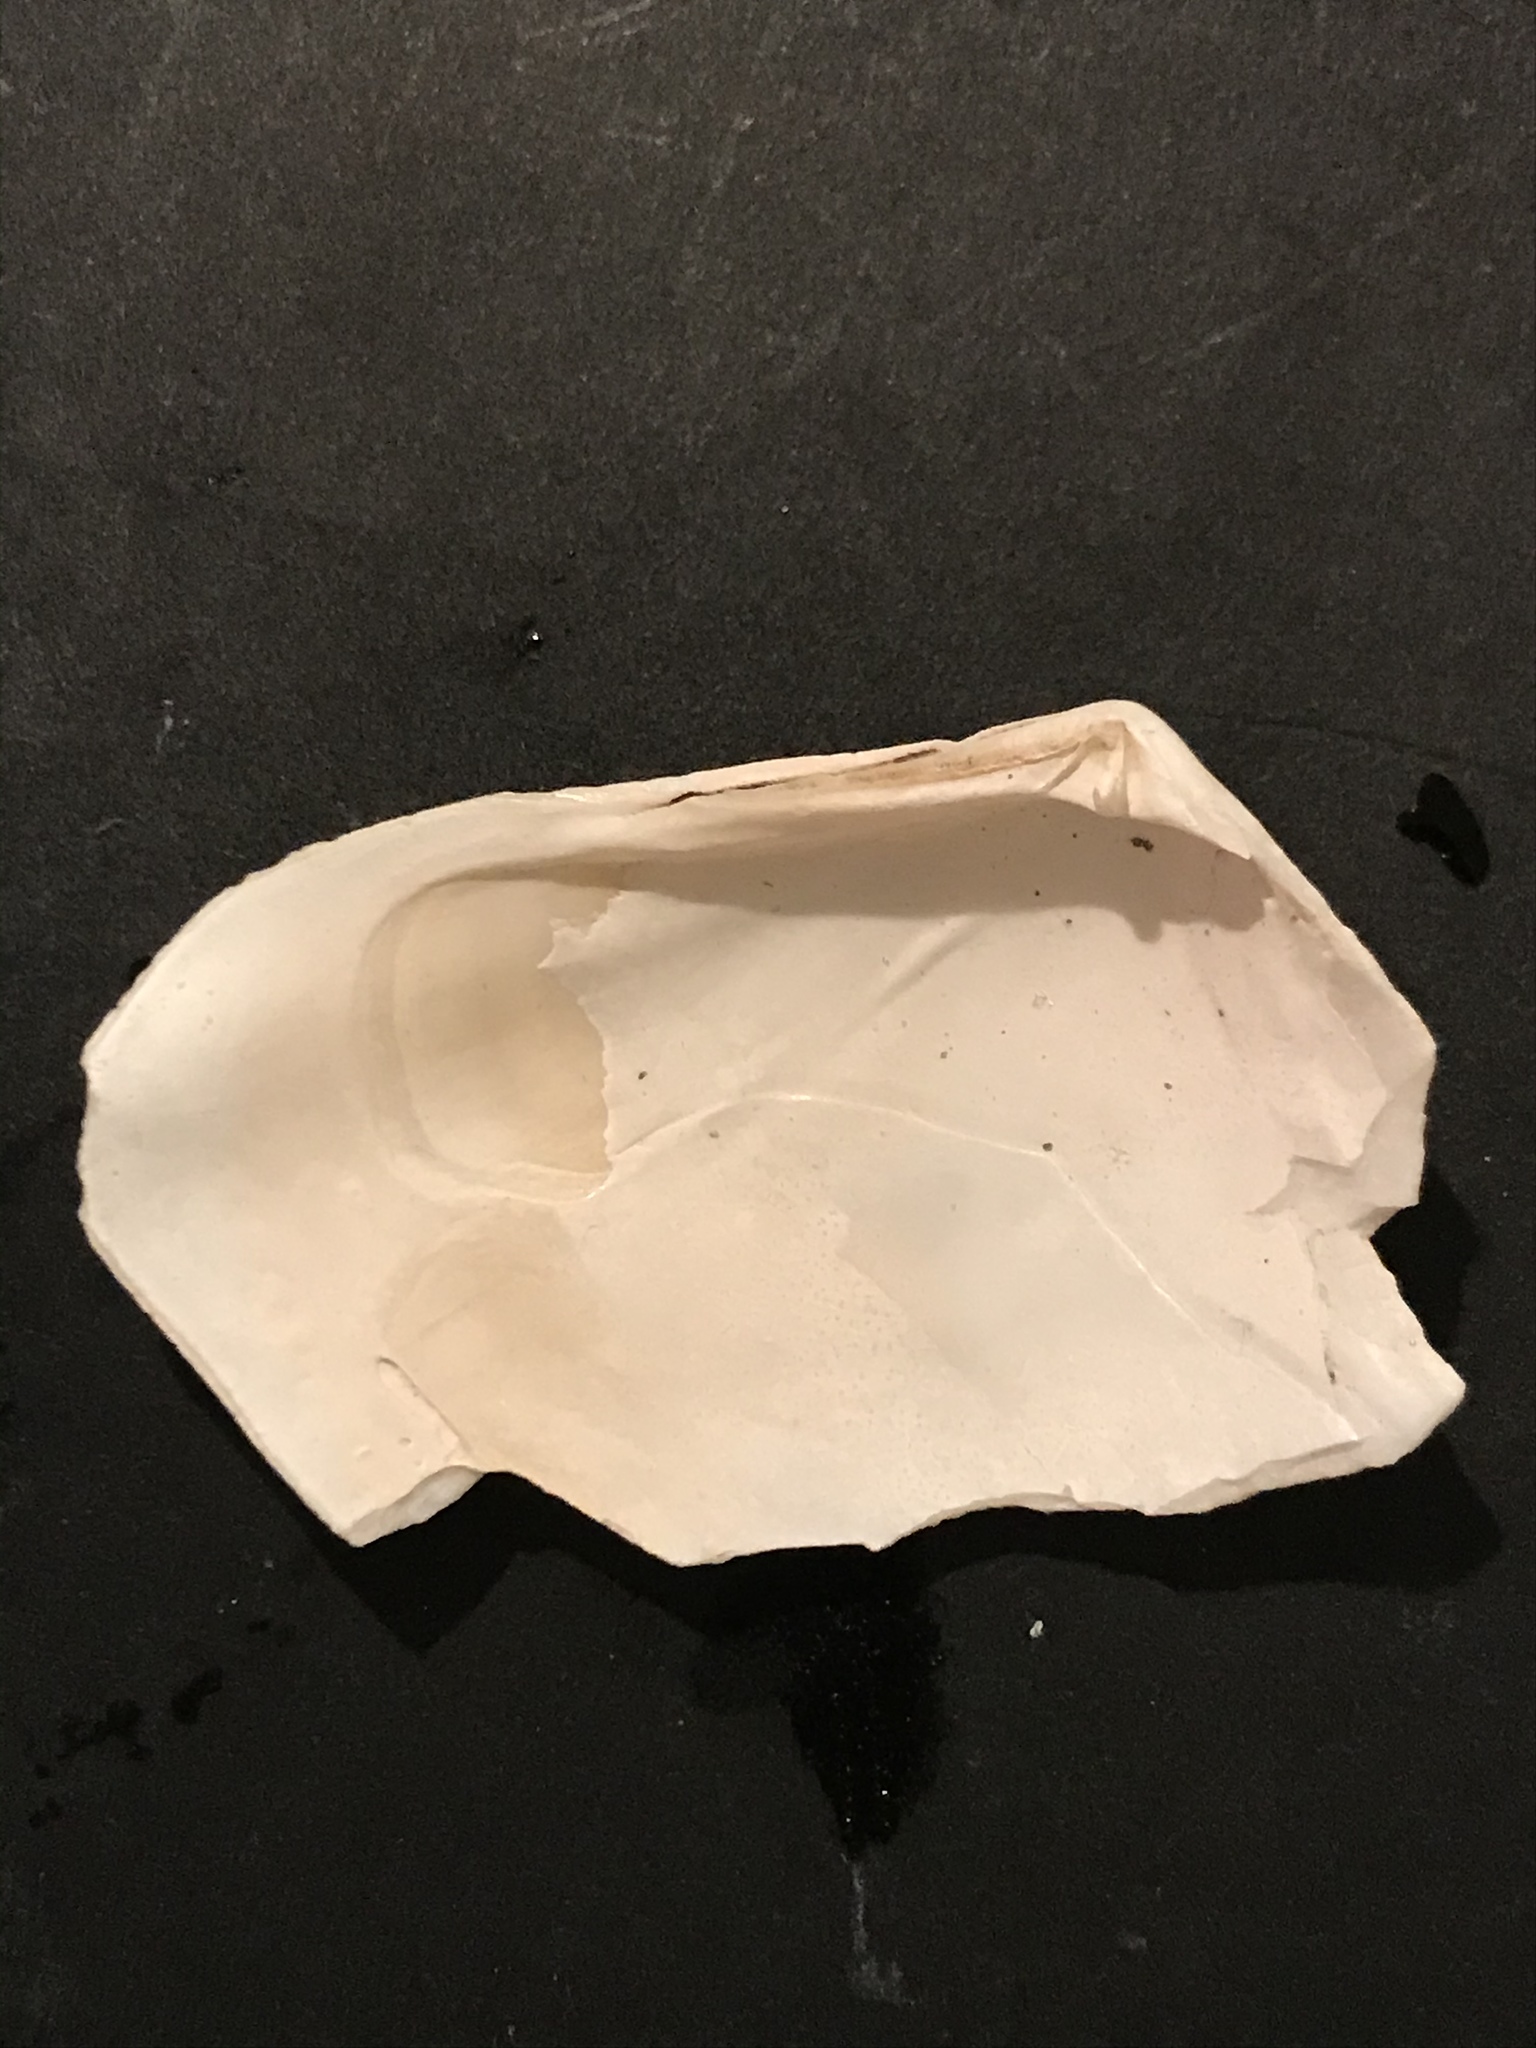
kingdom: Animalia
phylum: Mollusca
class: Bivalvia
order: Venerida
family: Veneridae
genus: Tivela
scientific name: Tivela stultorum
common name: Pismo clam
